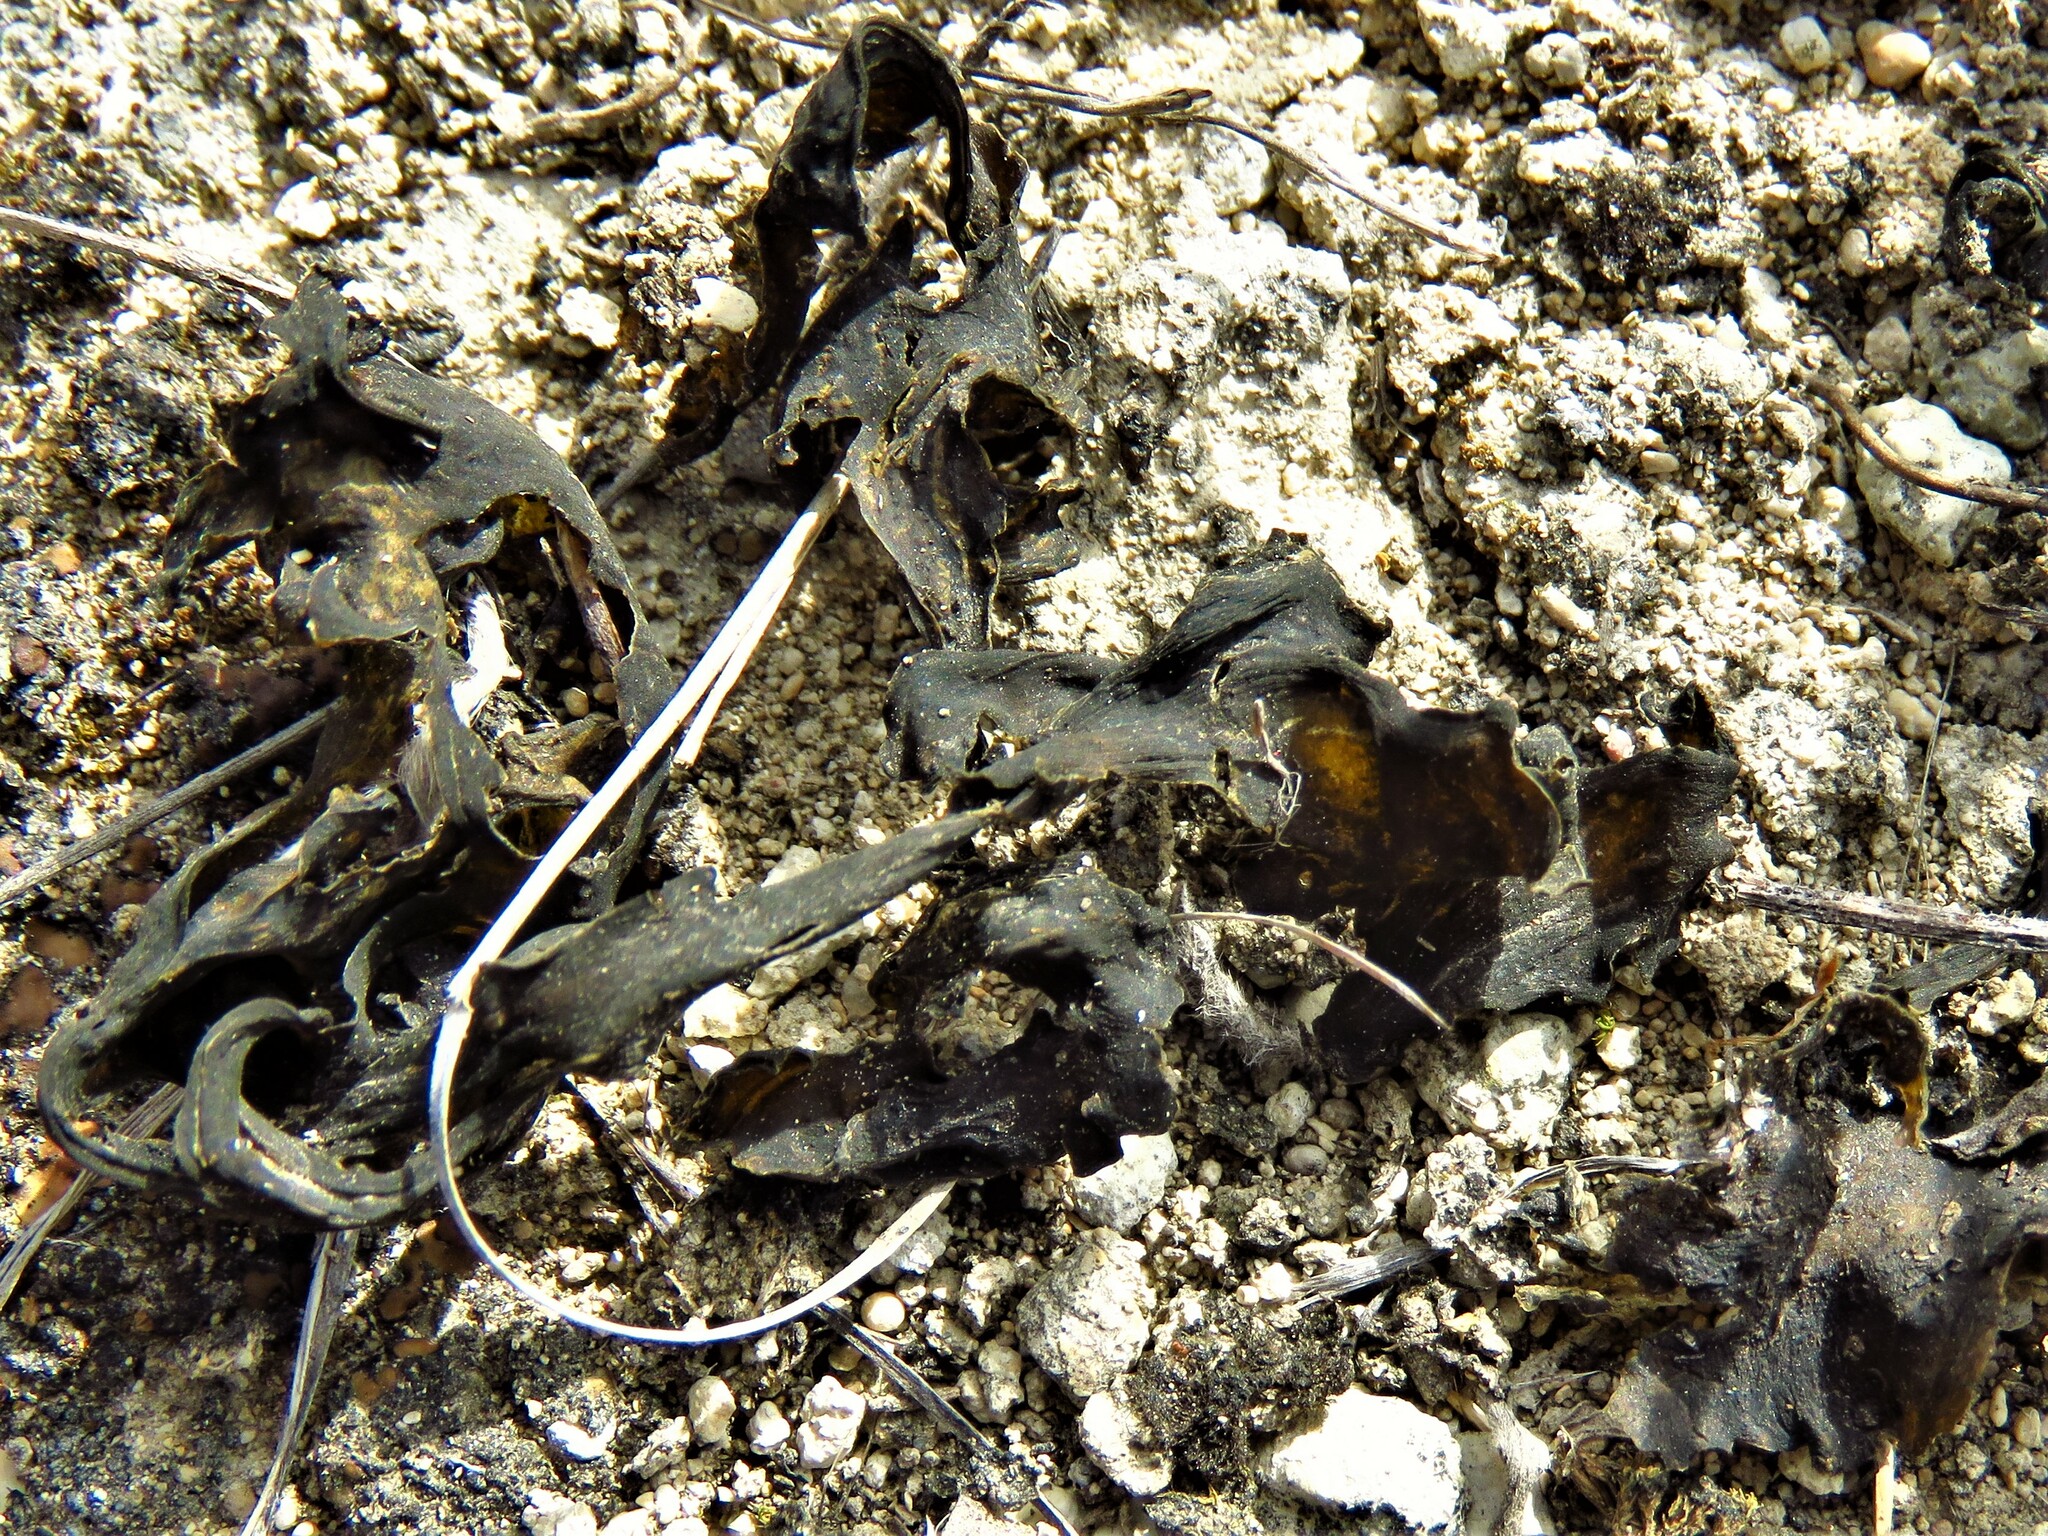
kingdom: Bacteria
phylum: Cyanobacteria
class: Cyanobacteriia
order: Cyanobacteriales
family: Nostocaceae
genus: Nostoc
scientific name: Nostoc commune
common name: Star jelly
